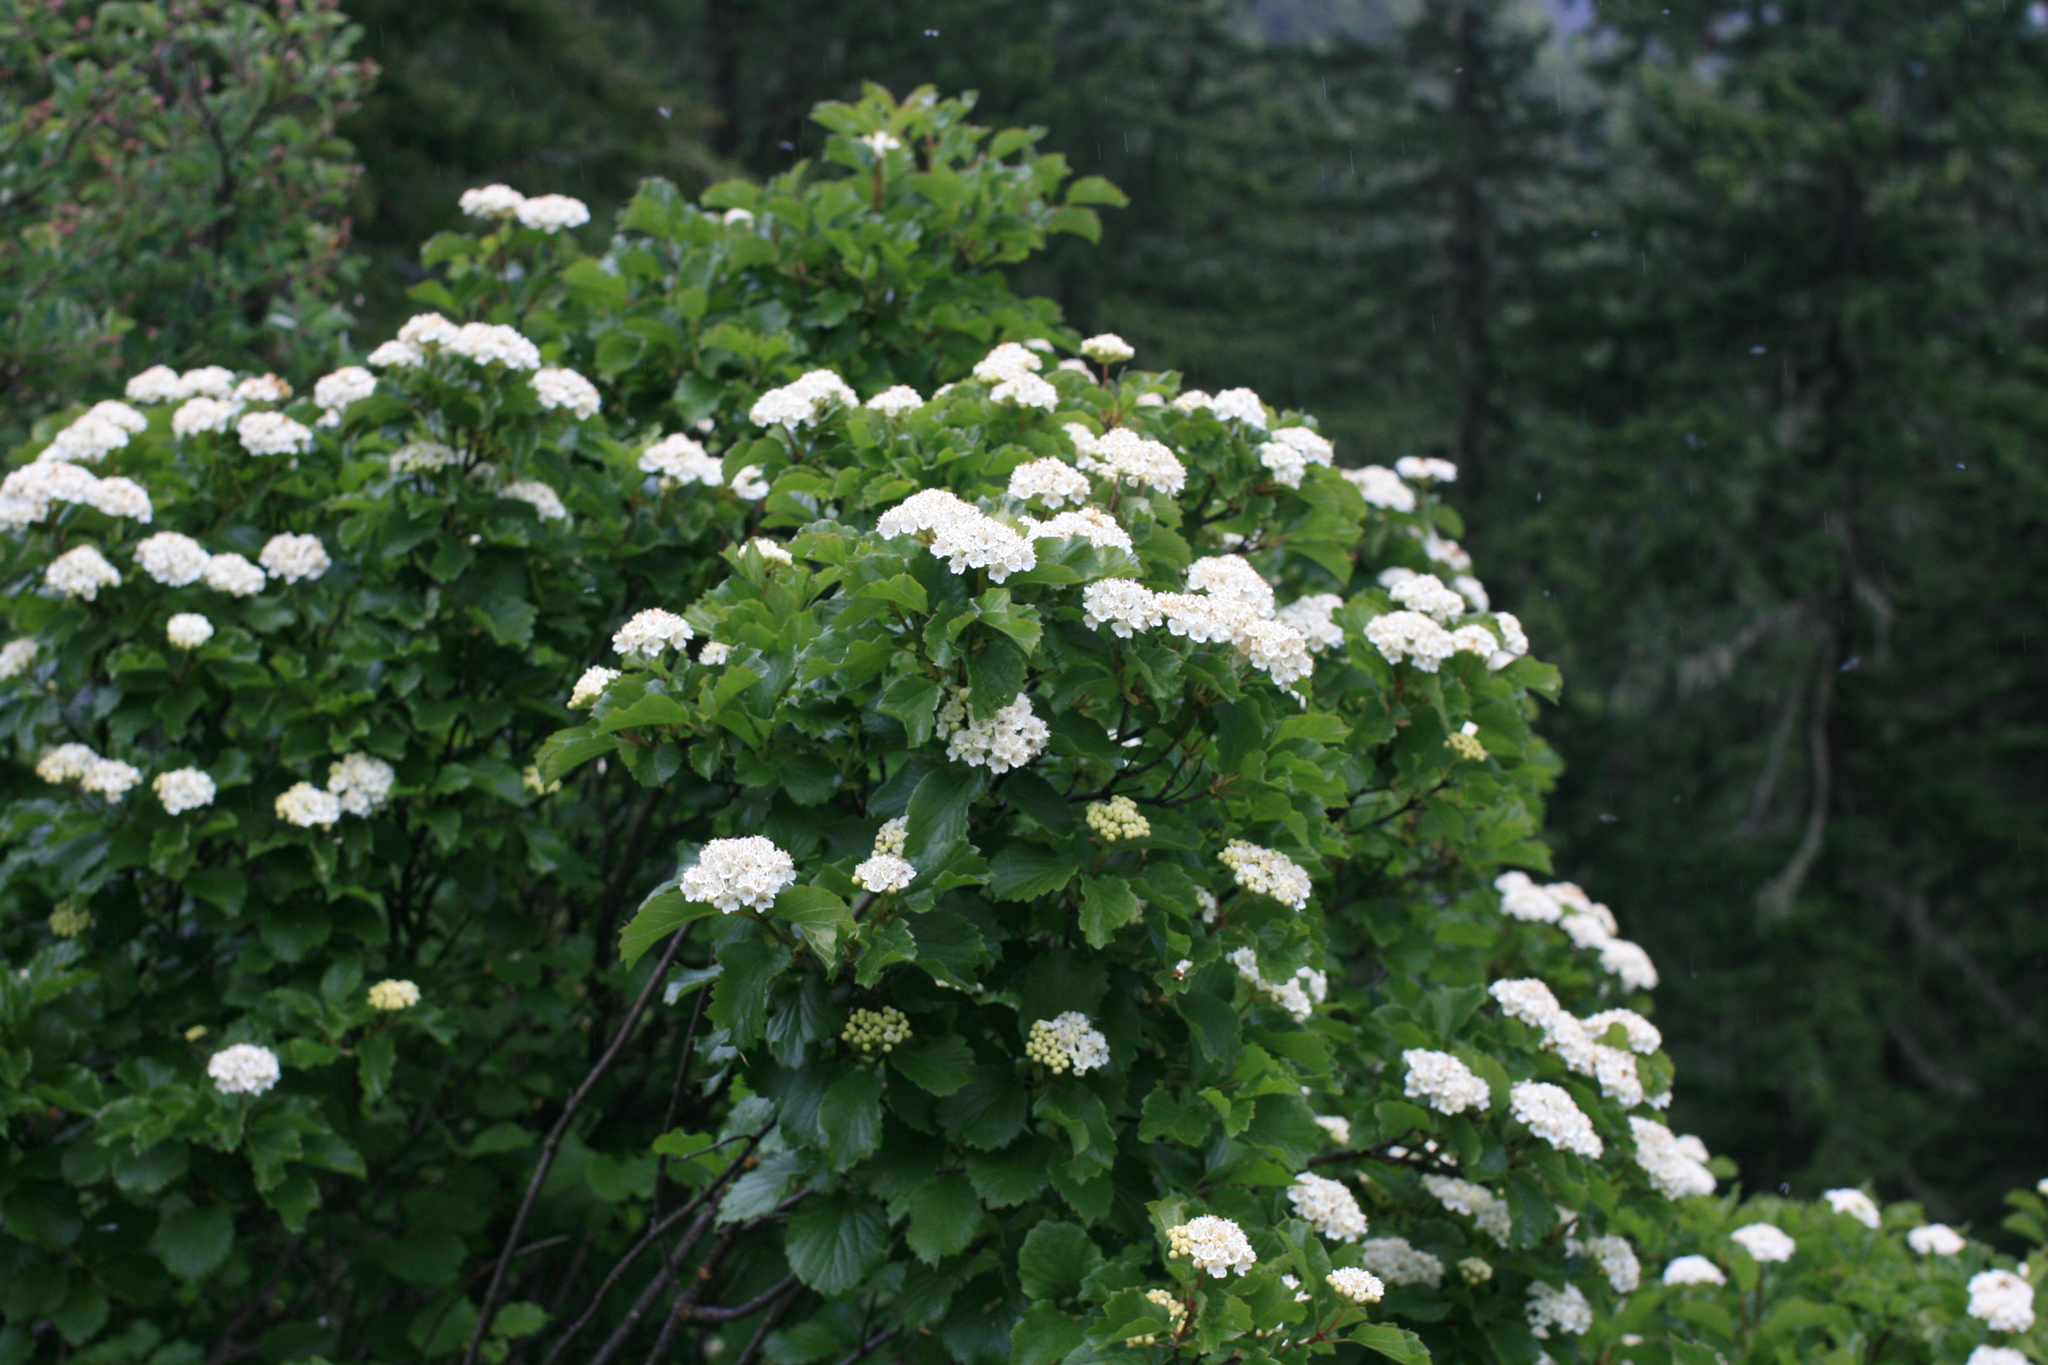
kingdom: Plantae
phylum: Tracheophyta
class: Magnoliopsida
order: Dipsacales
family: Viburnaceae
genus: Viburnum
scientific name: Viburnum ellipticum
